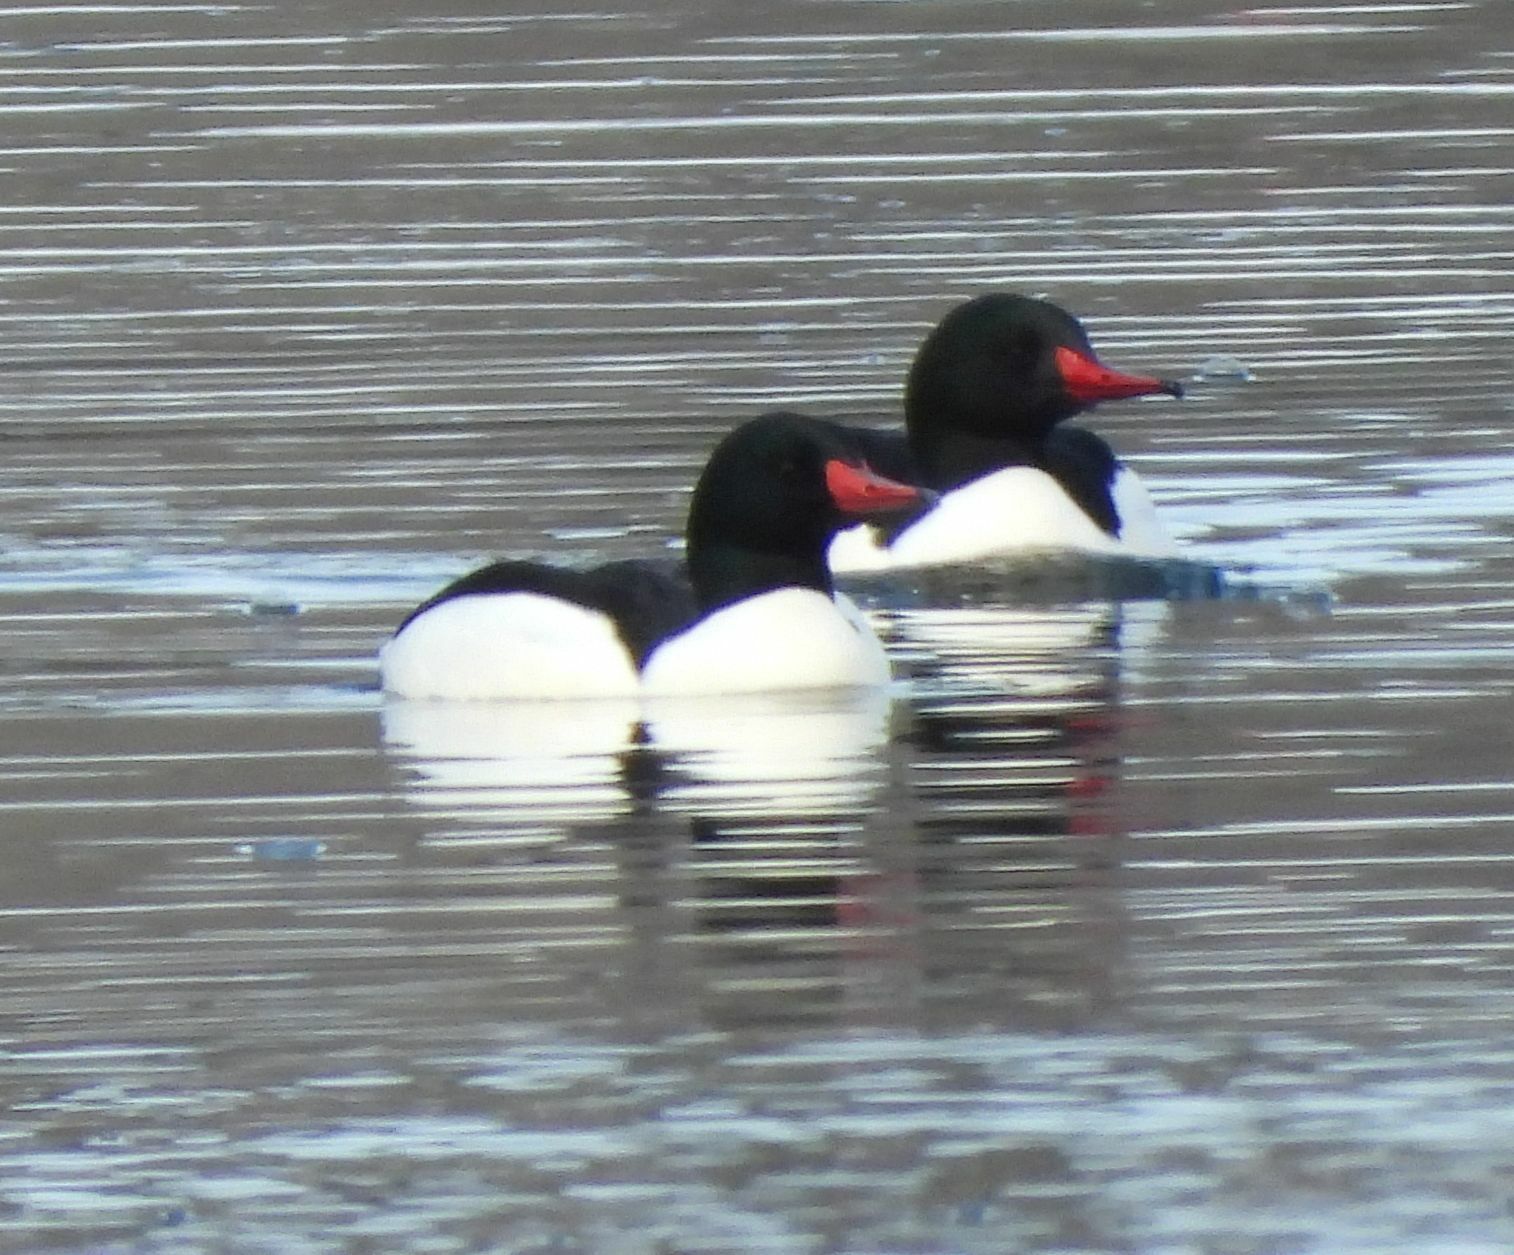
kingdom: Animalia
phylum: Chordata
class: Aves
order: Anseriformes
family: Anatidae
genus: Mergus
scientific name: Mergus merganser
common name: Common merganser
